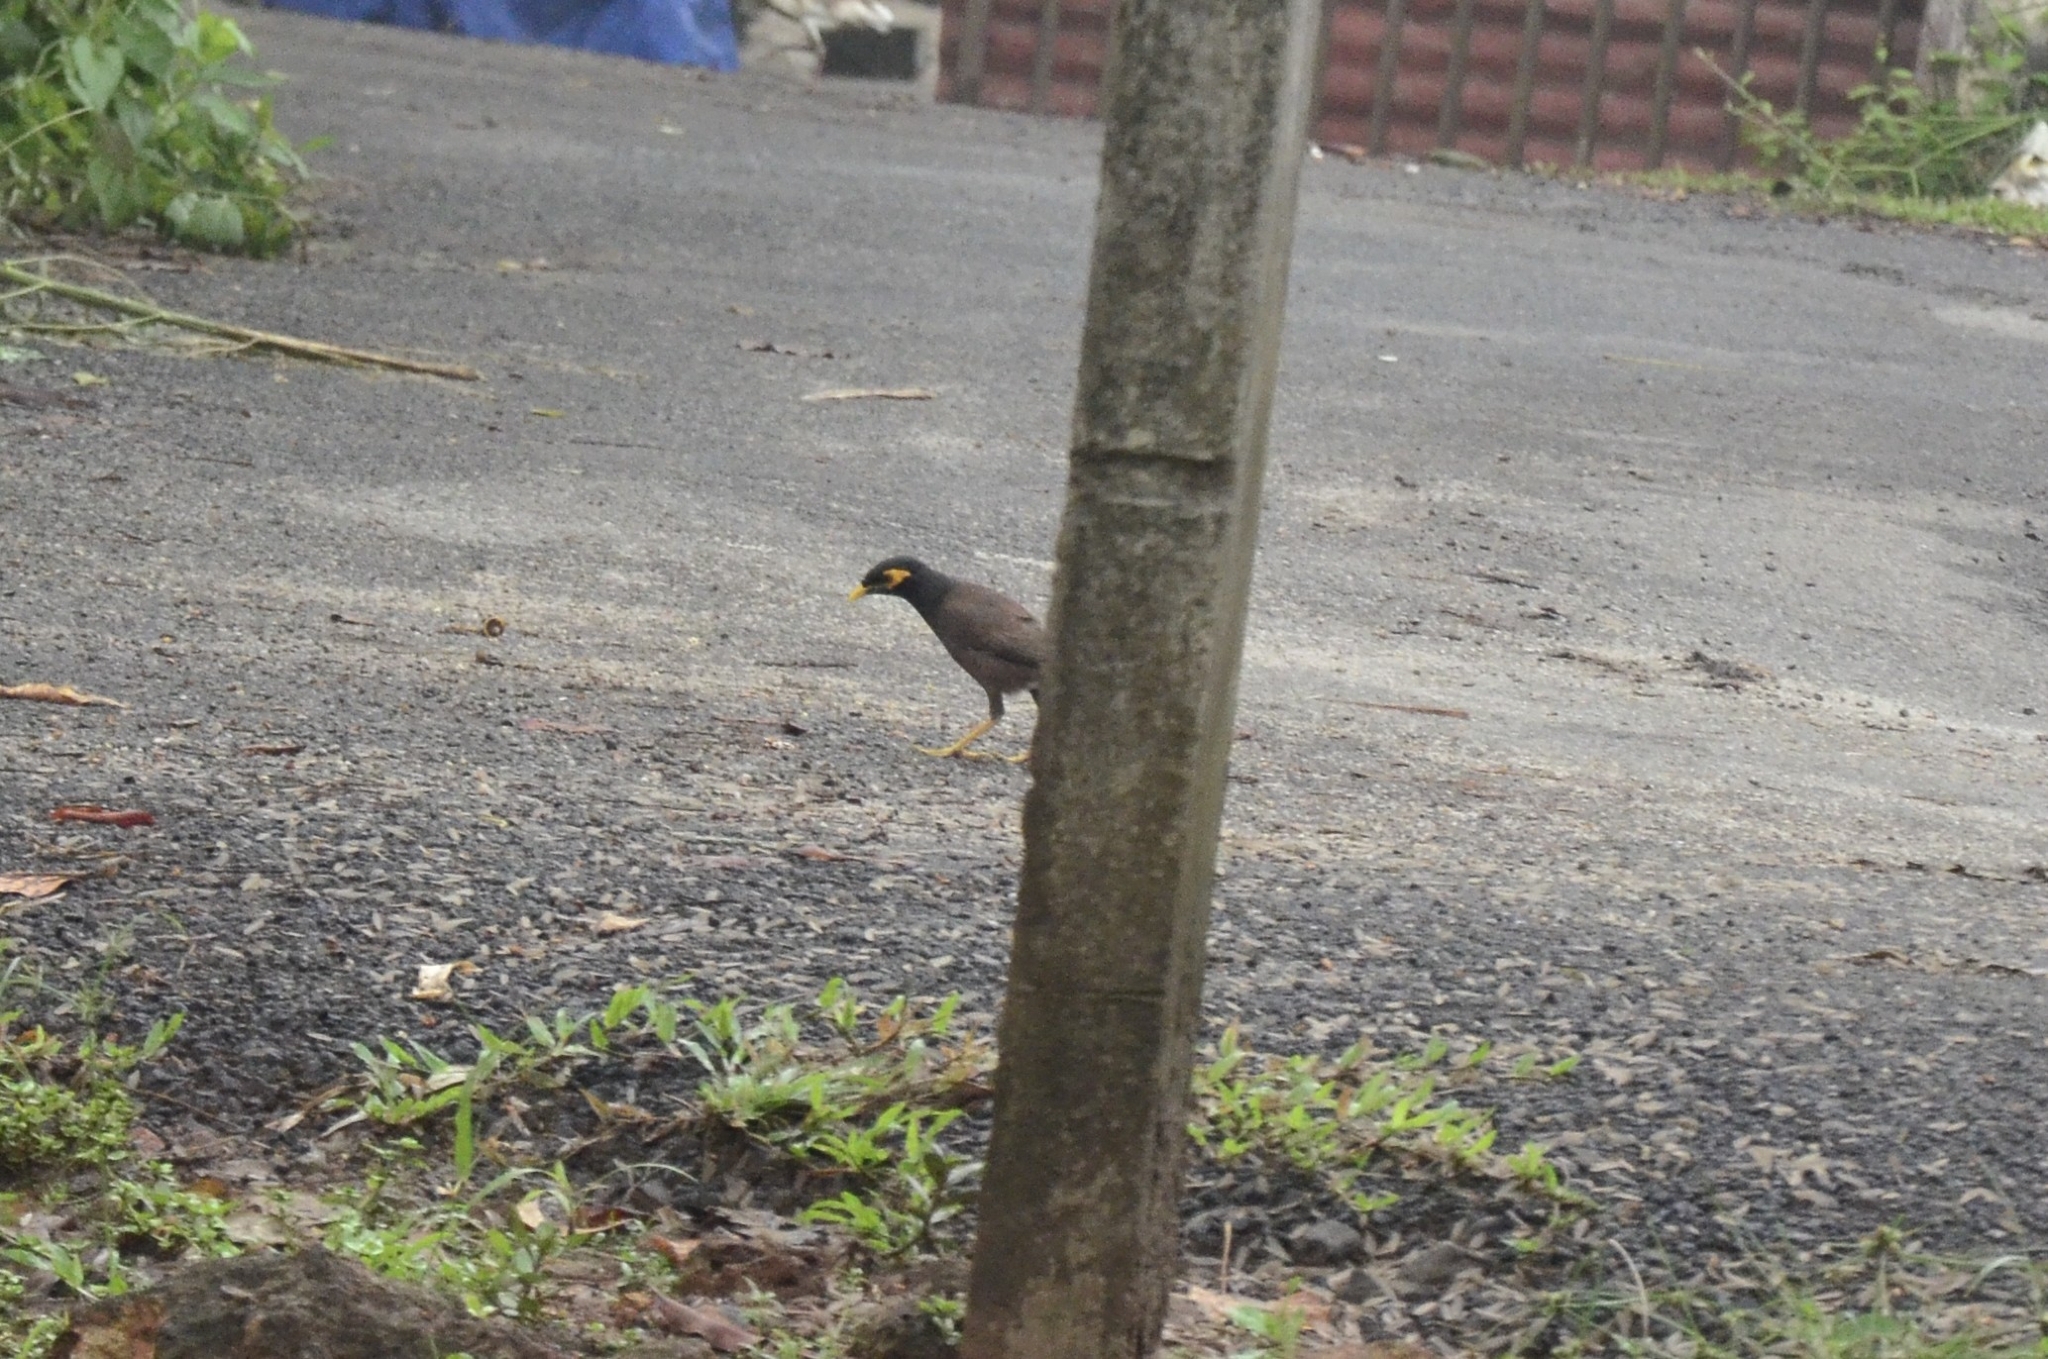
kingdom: Animalia
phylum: Chordata
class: Aves
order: Passeriformes
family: Sturnidae
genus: Acridotheres
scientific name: Acridotheres tristis
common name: Common myna
